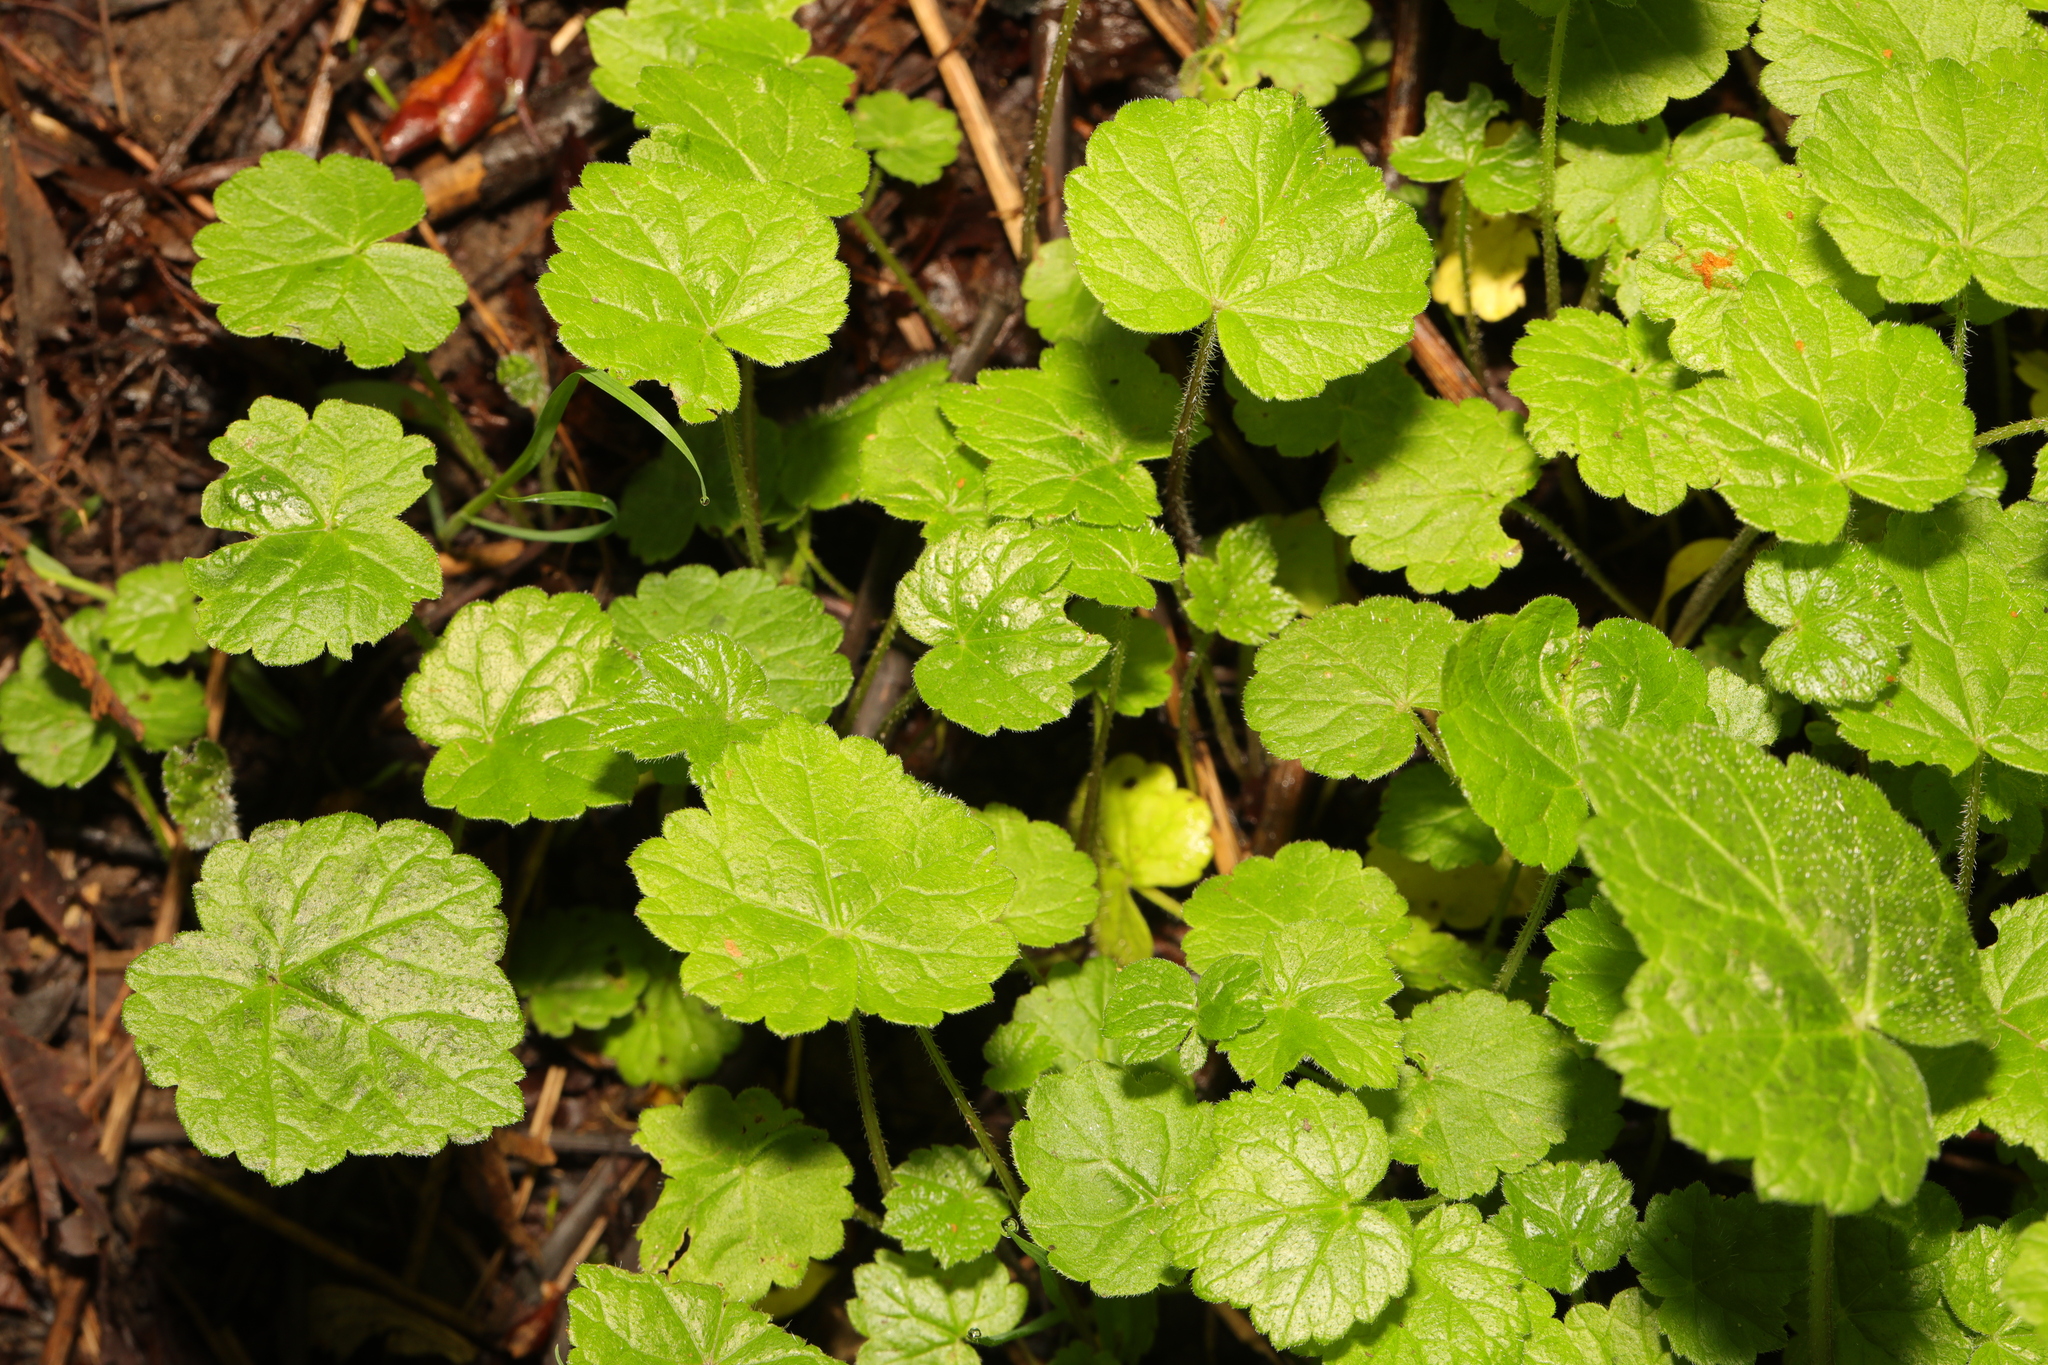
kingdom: Plantae
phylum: Tracheophyta
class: Magnoliopsida
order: Saxifragales
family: Saxifragaceae
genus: Tolmiea
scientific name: Tolmiea menziesii
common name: Pick-a-back-plant
